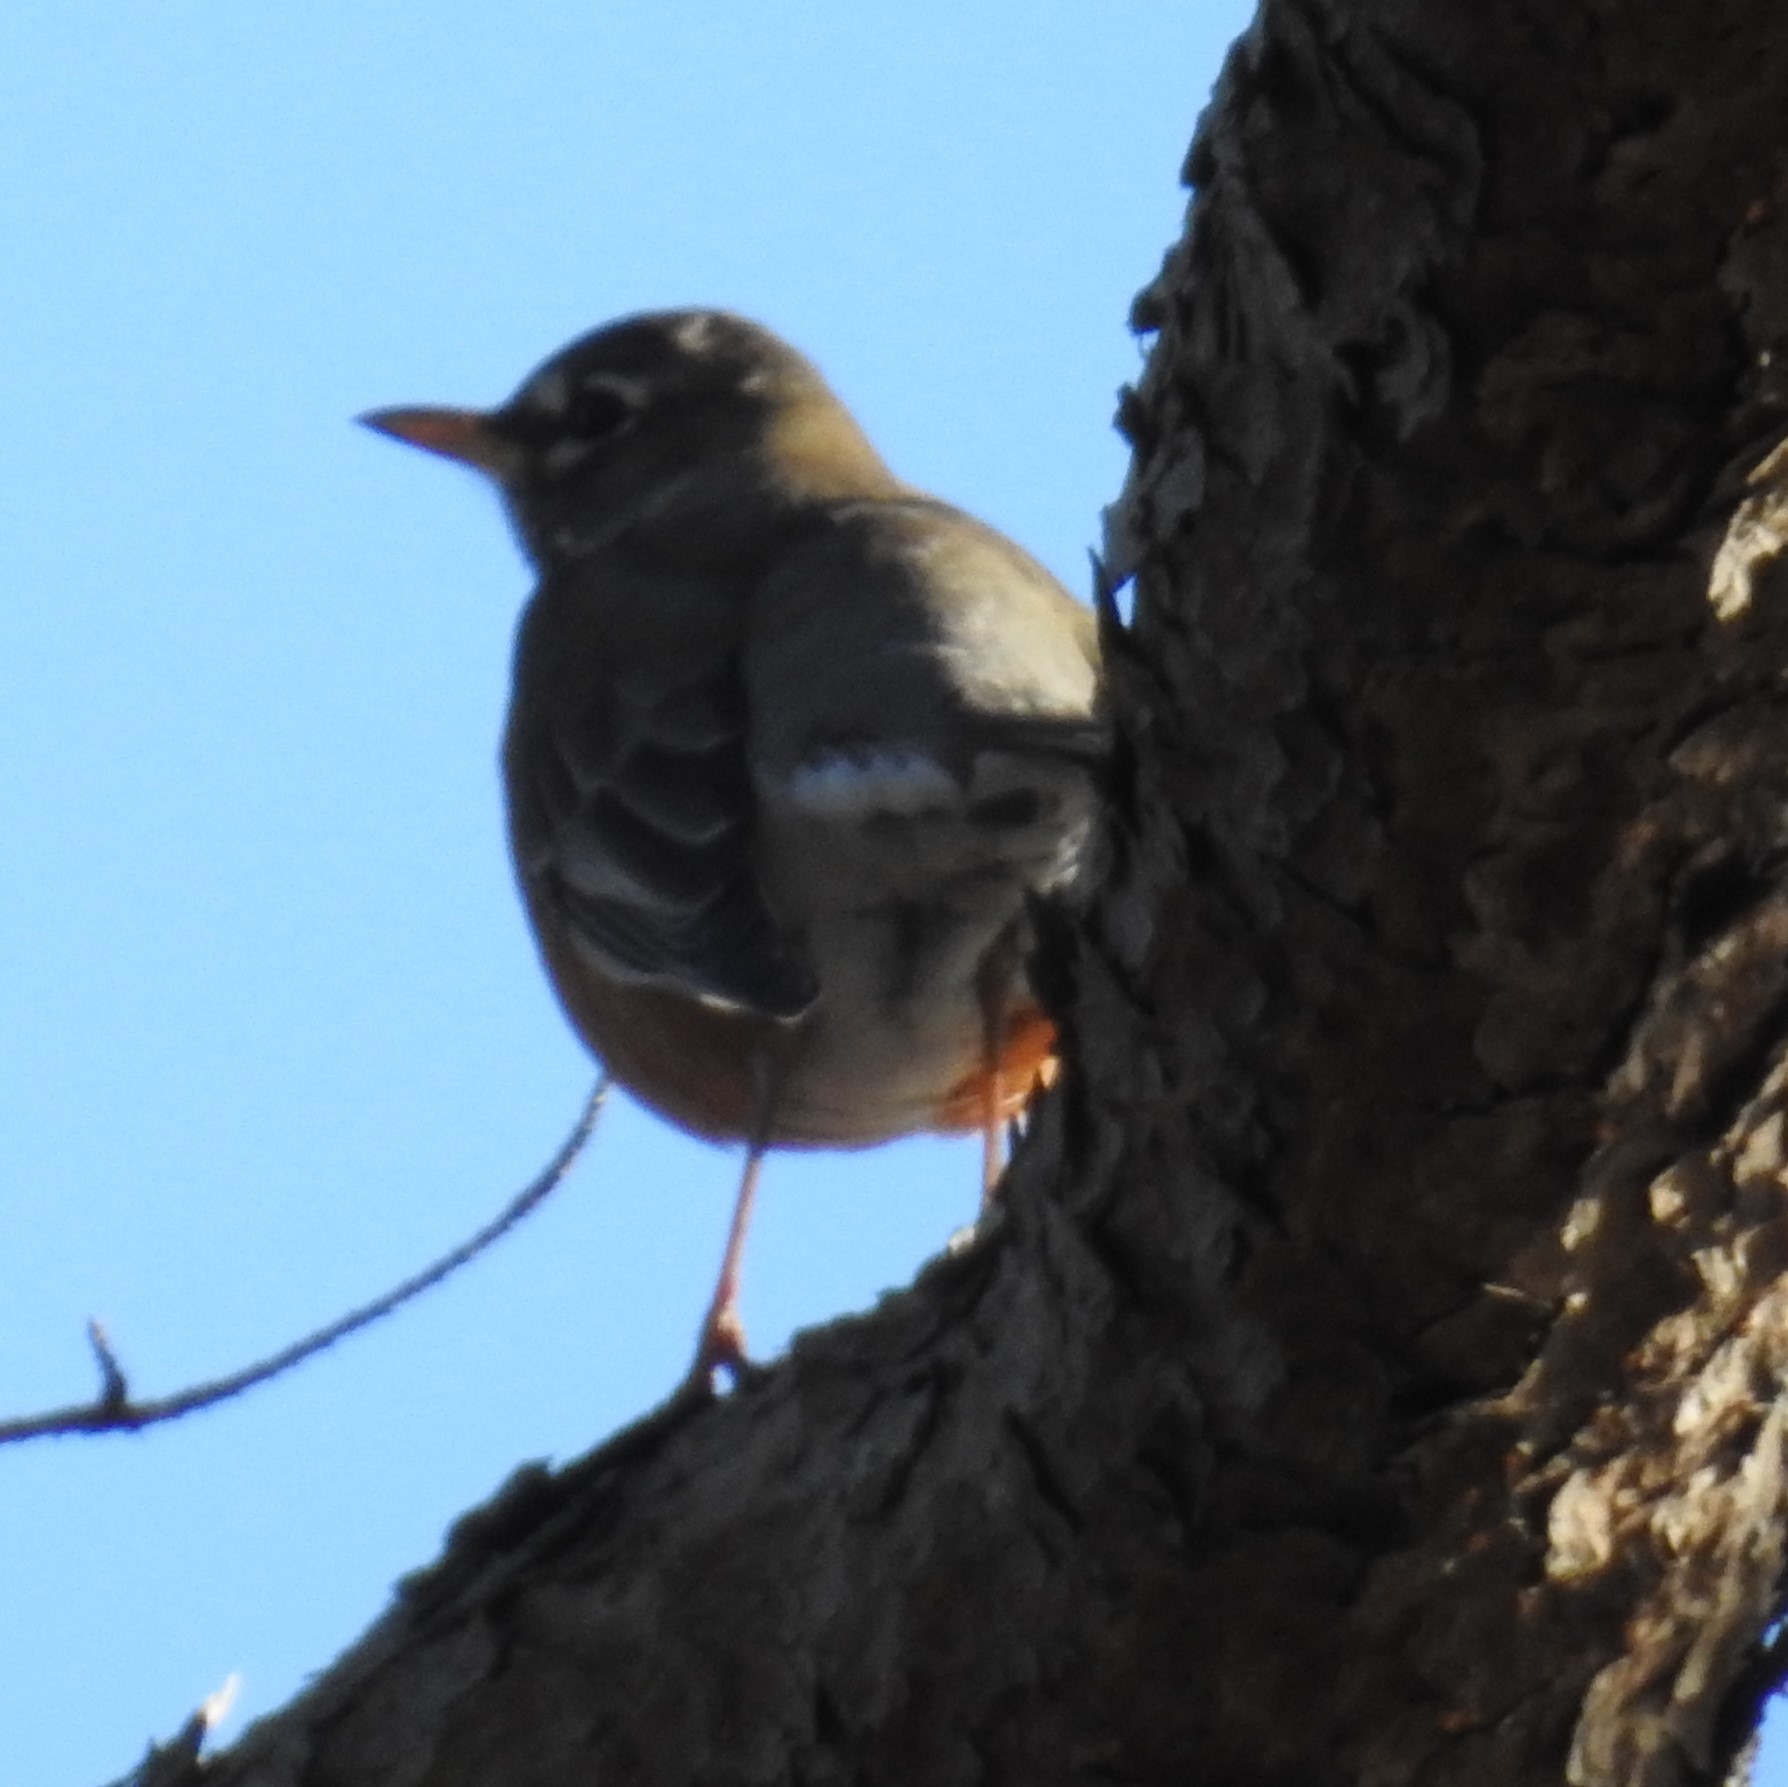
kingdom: Animalia
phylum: Chordata
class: Aves
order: Passeriformes
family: Turdidae
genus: Turdus
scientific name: Turdus migratorius
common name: American robin
